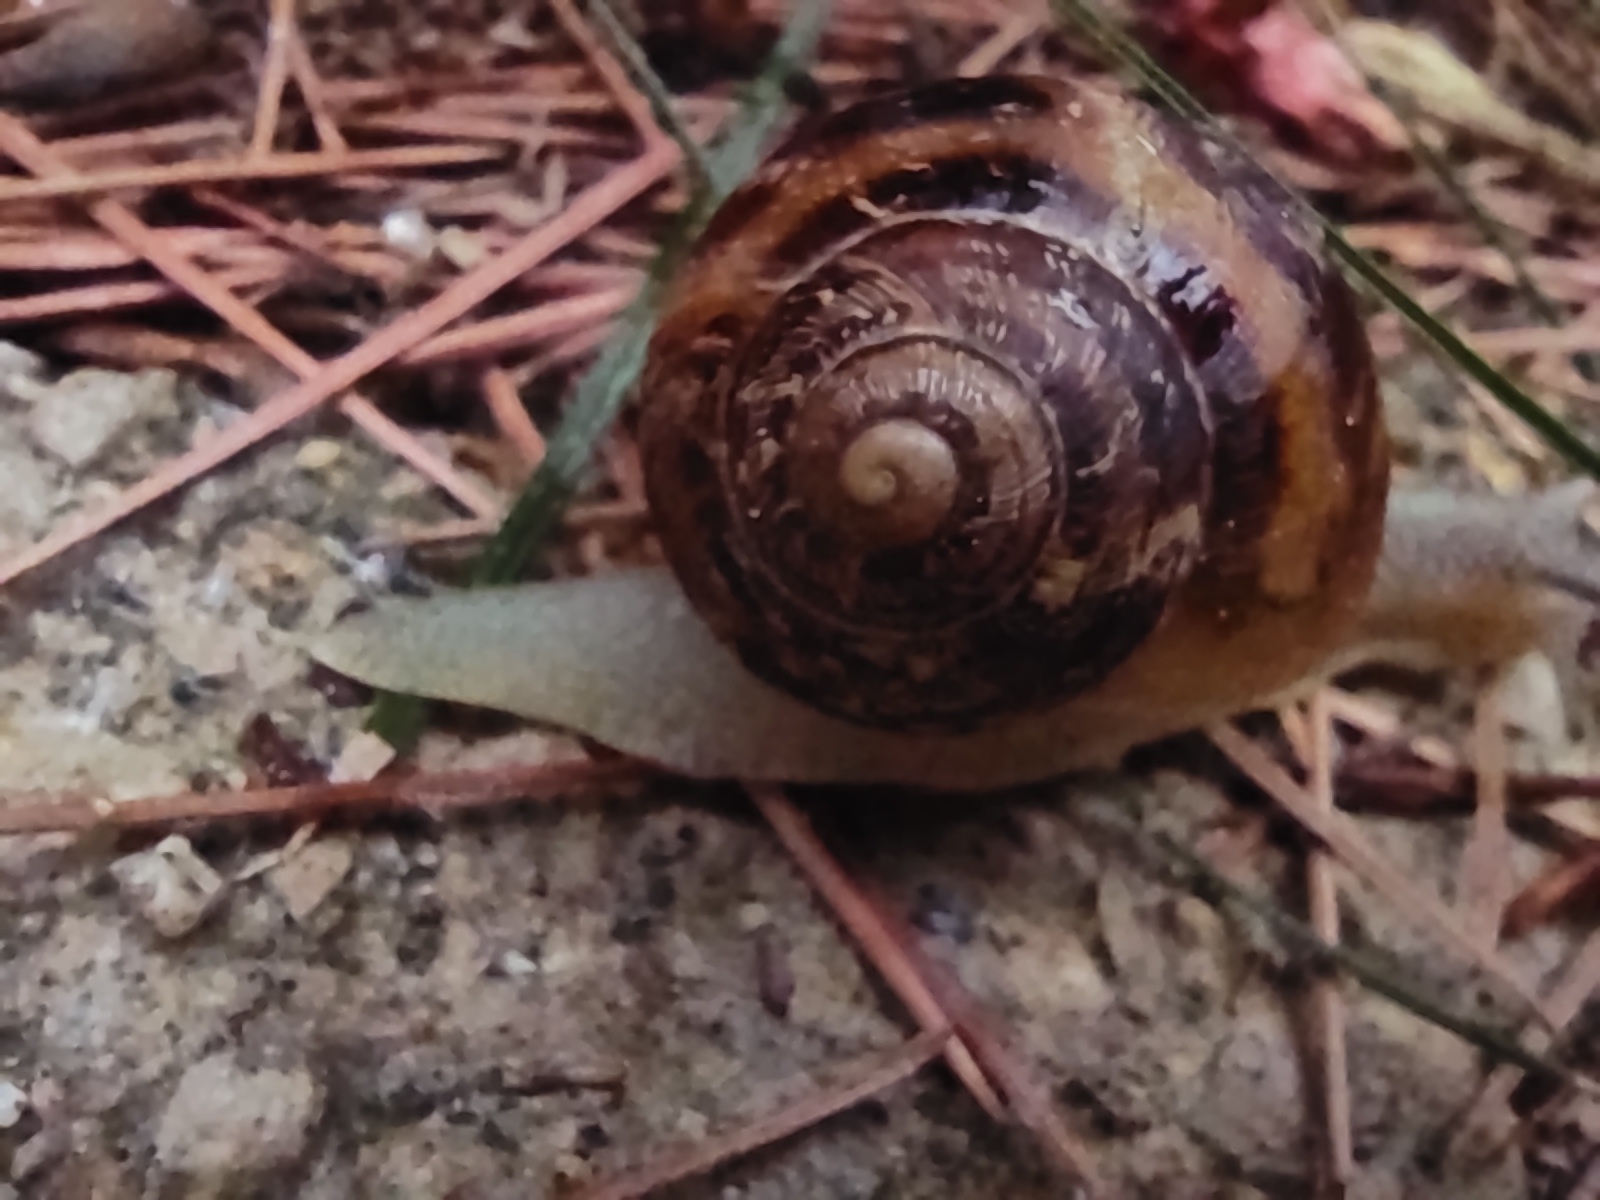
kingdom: Animalia
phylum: Mollusca
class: Gastropoda
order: Stylommatophora
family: Helicidae
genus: Cornu
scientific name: Cornu aspersum
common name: Brown garden snail
